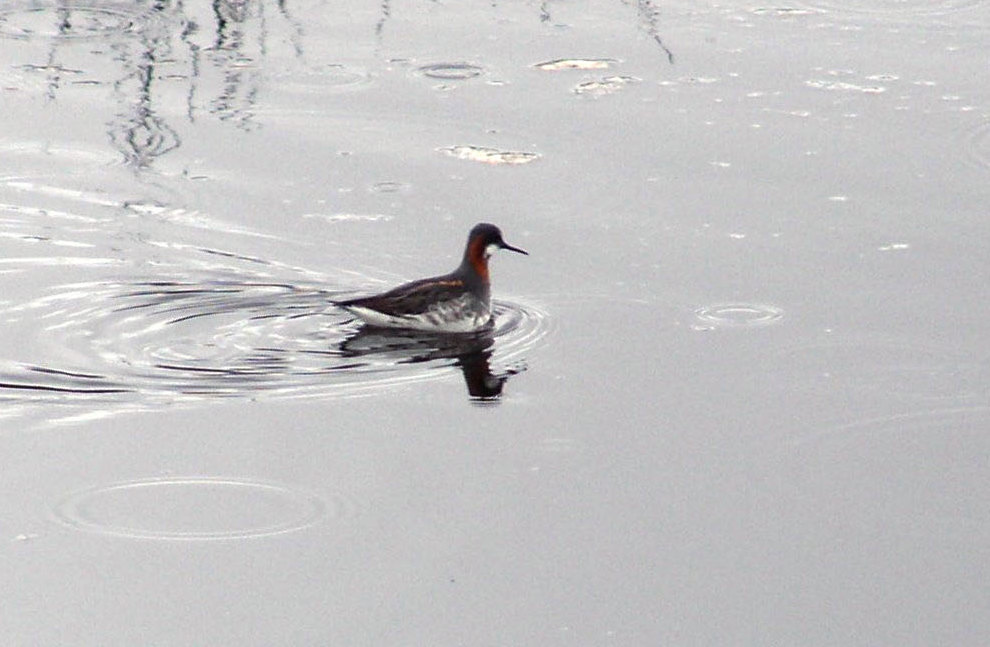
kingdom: Animalia
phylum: Chordata
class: Aves
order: Charadriiformes
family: Scolopacidae
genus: Phalaropus
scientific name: Phalaropus lobatus
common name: Red-necked phalarope
